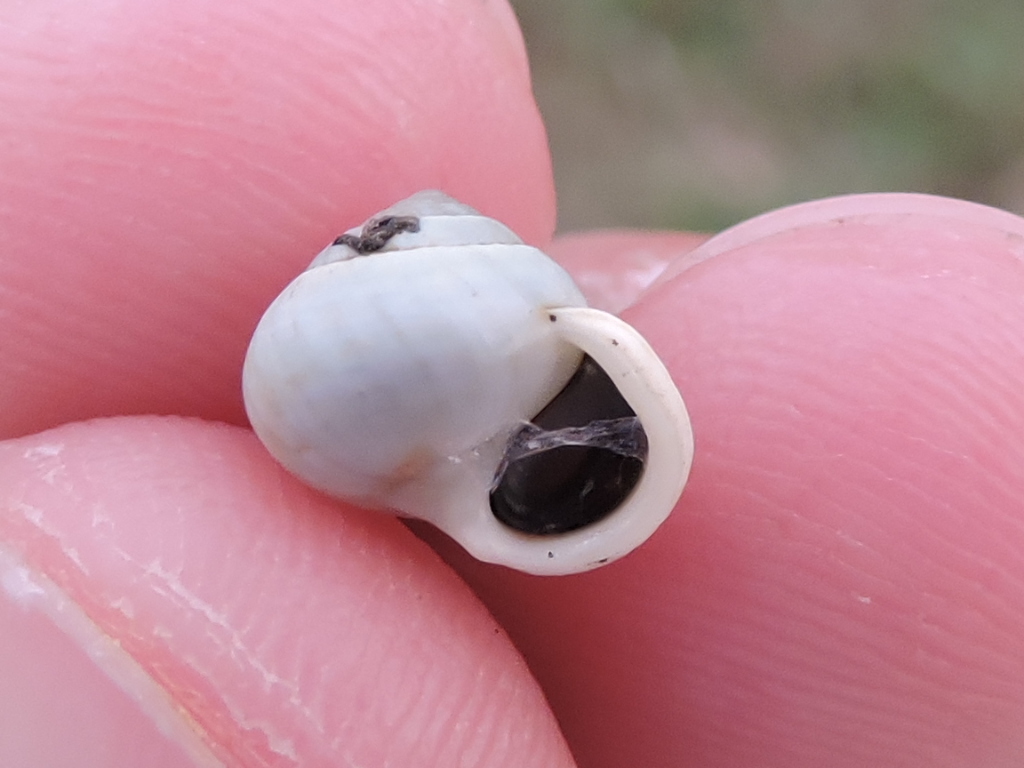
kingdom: Animalia
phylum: Mollusca
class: Gastropoda
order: Cycloneritida
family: Helicinidae
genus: Helicina
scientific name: Helicina orbiculata
